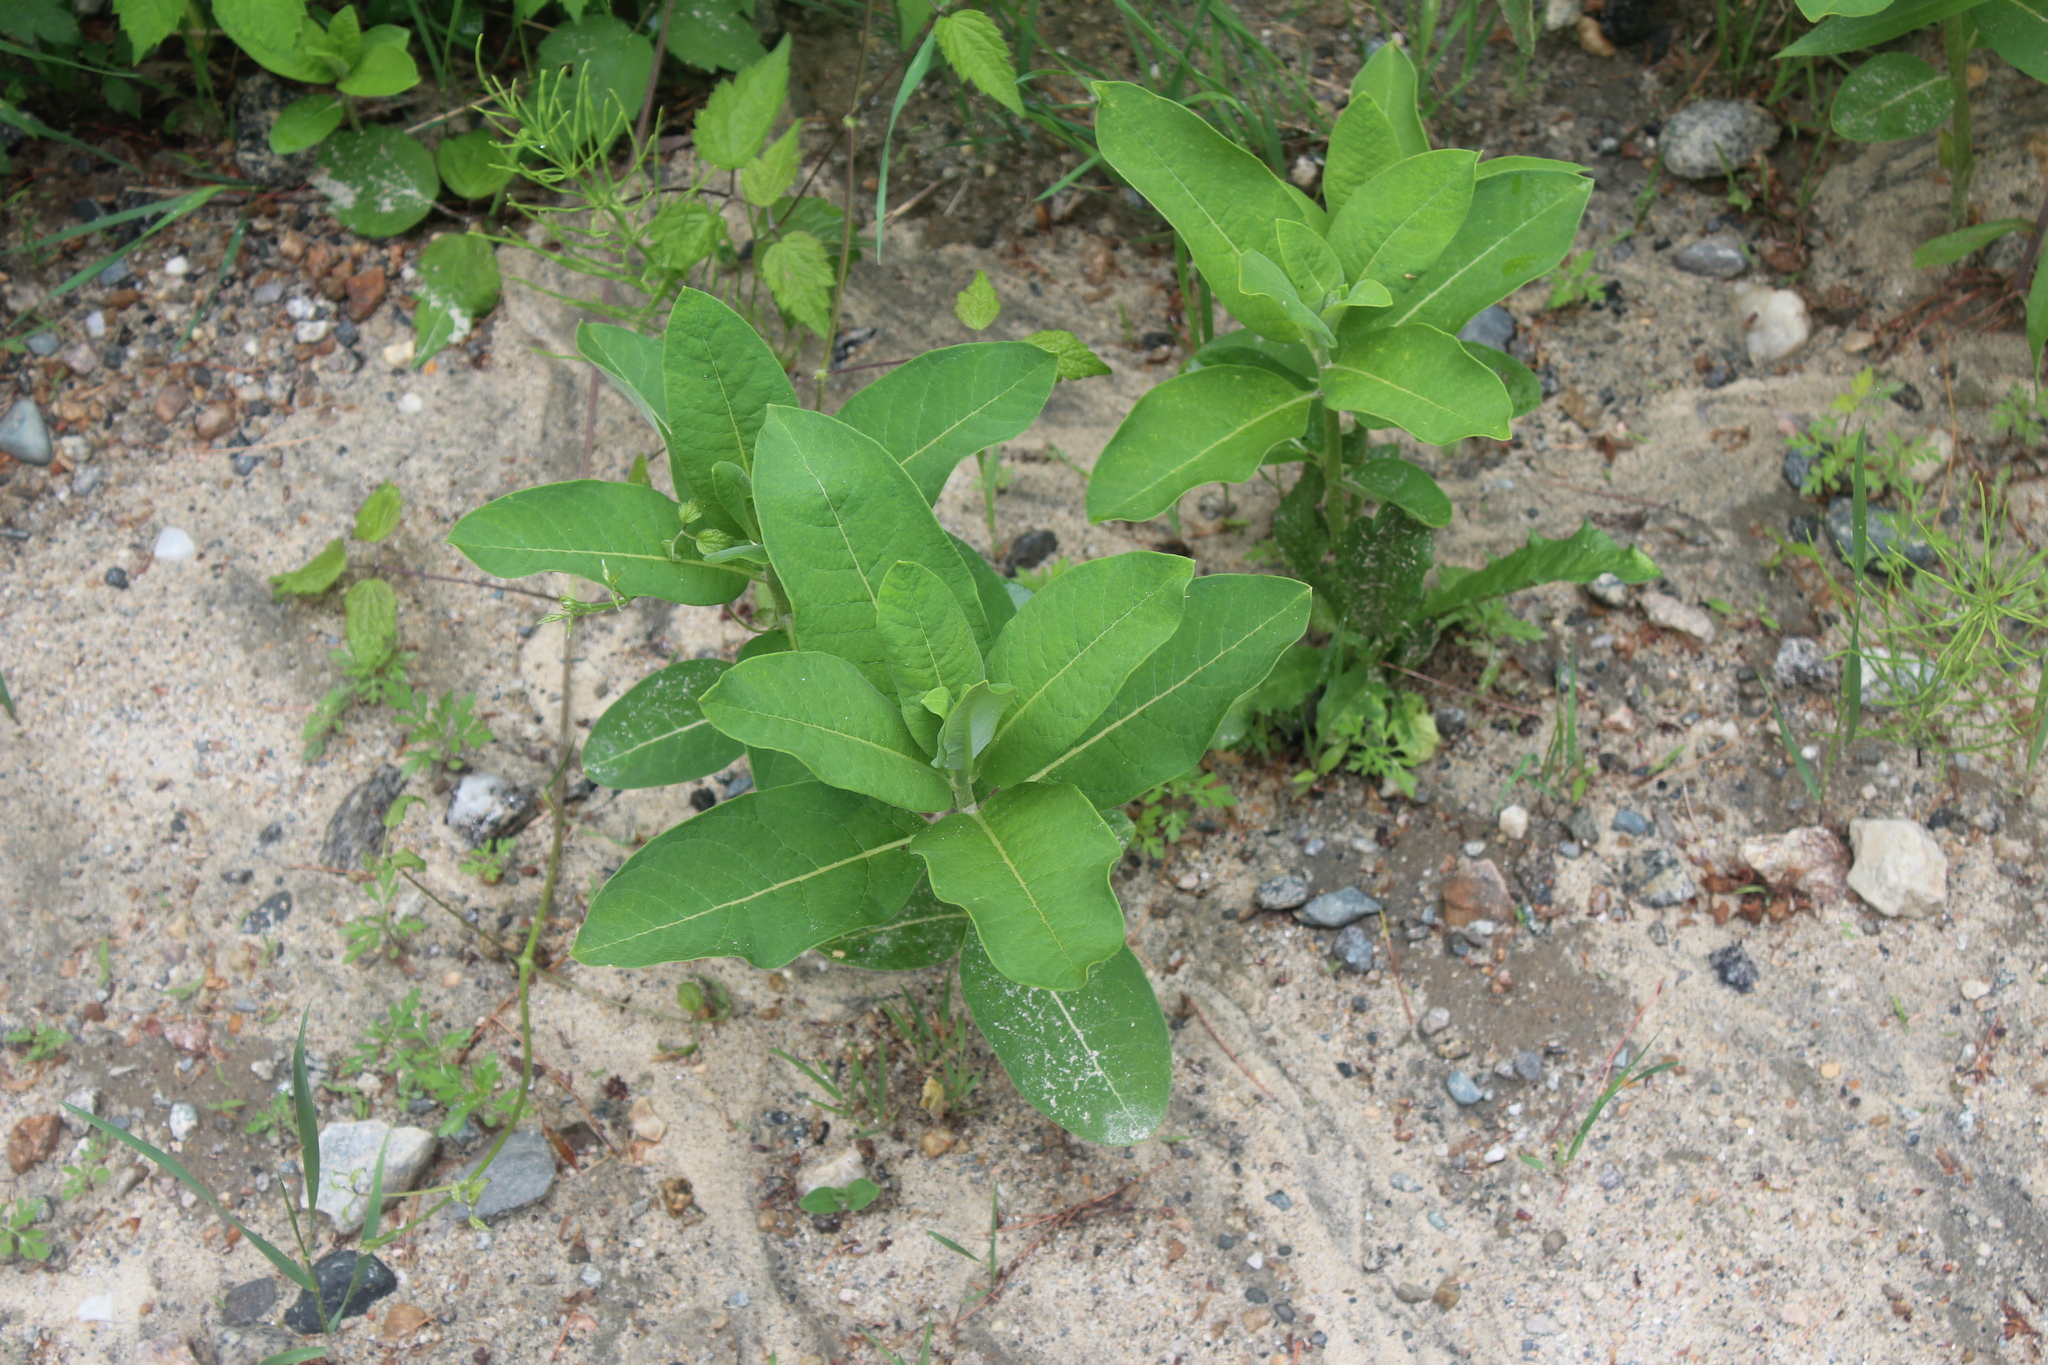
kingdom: Plantae
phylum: Tracheophyta
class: Magnoliopsida
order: Gentianales
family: Apocynaceae
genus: Asclepias
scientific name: Asclepias syriaca
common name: Common milkweed
